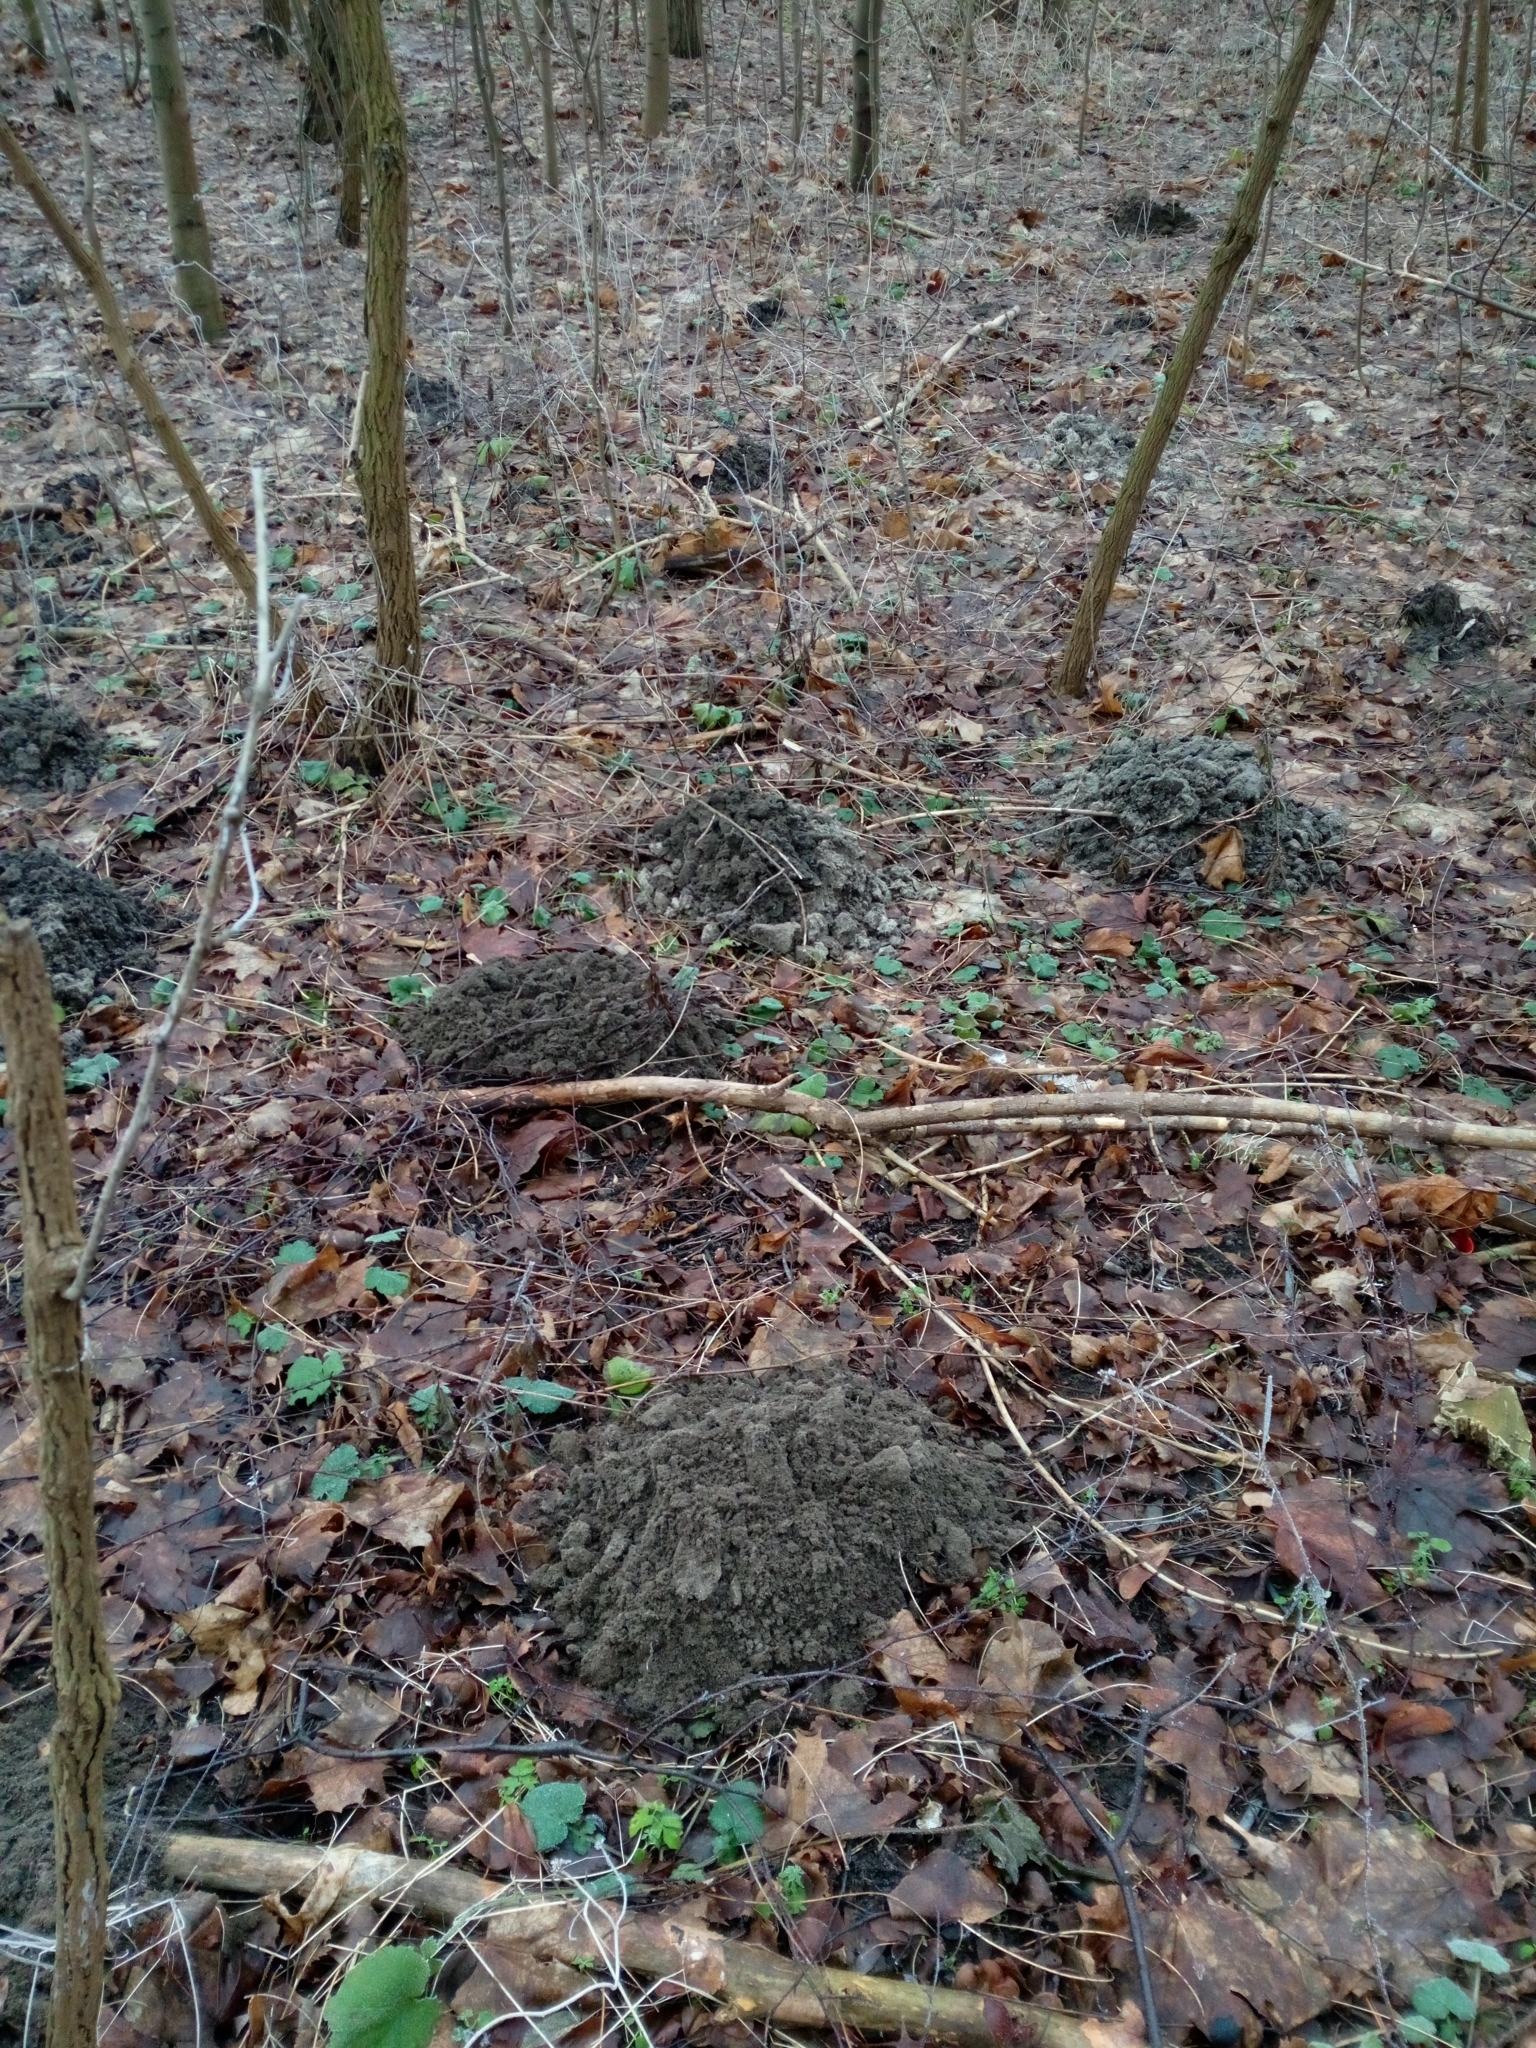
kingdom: Animalia
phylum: Chordata
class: Mammalia
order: Soricomorpha
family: Talpidae
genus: Talpa
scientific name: Talpa europaea
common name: European mole
